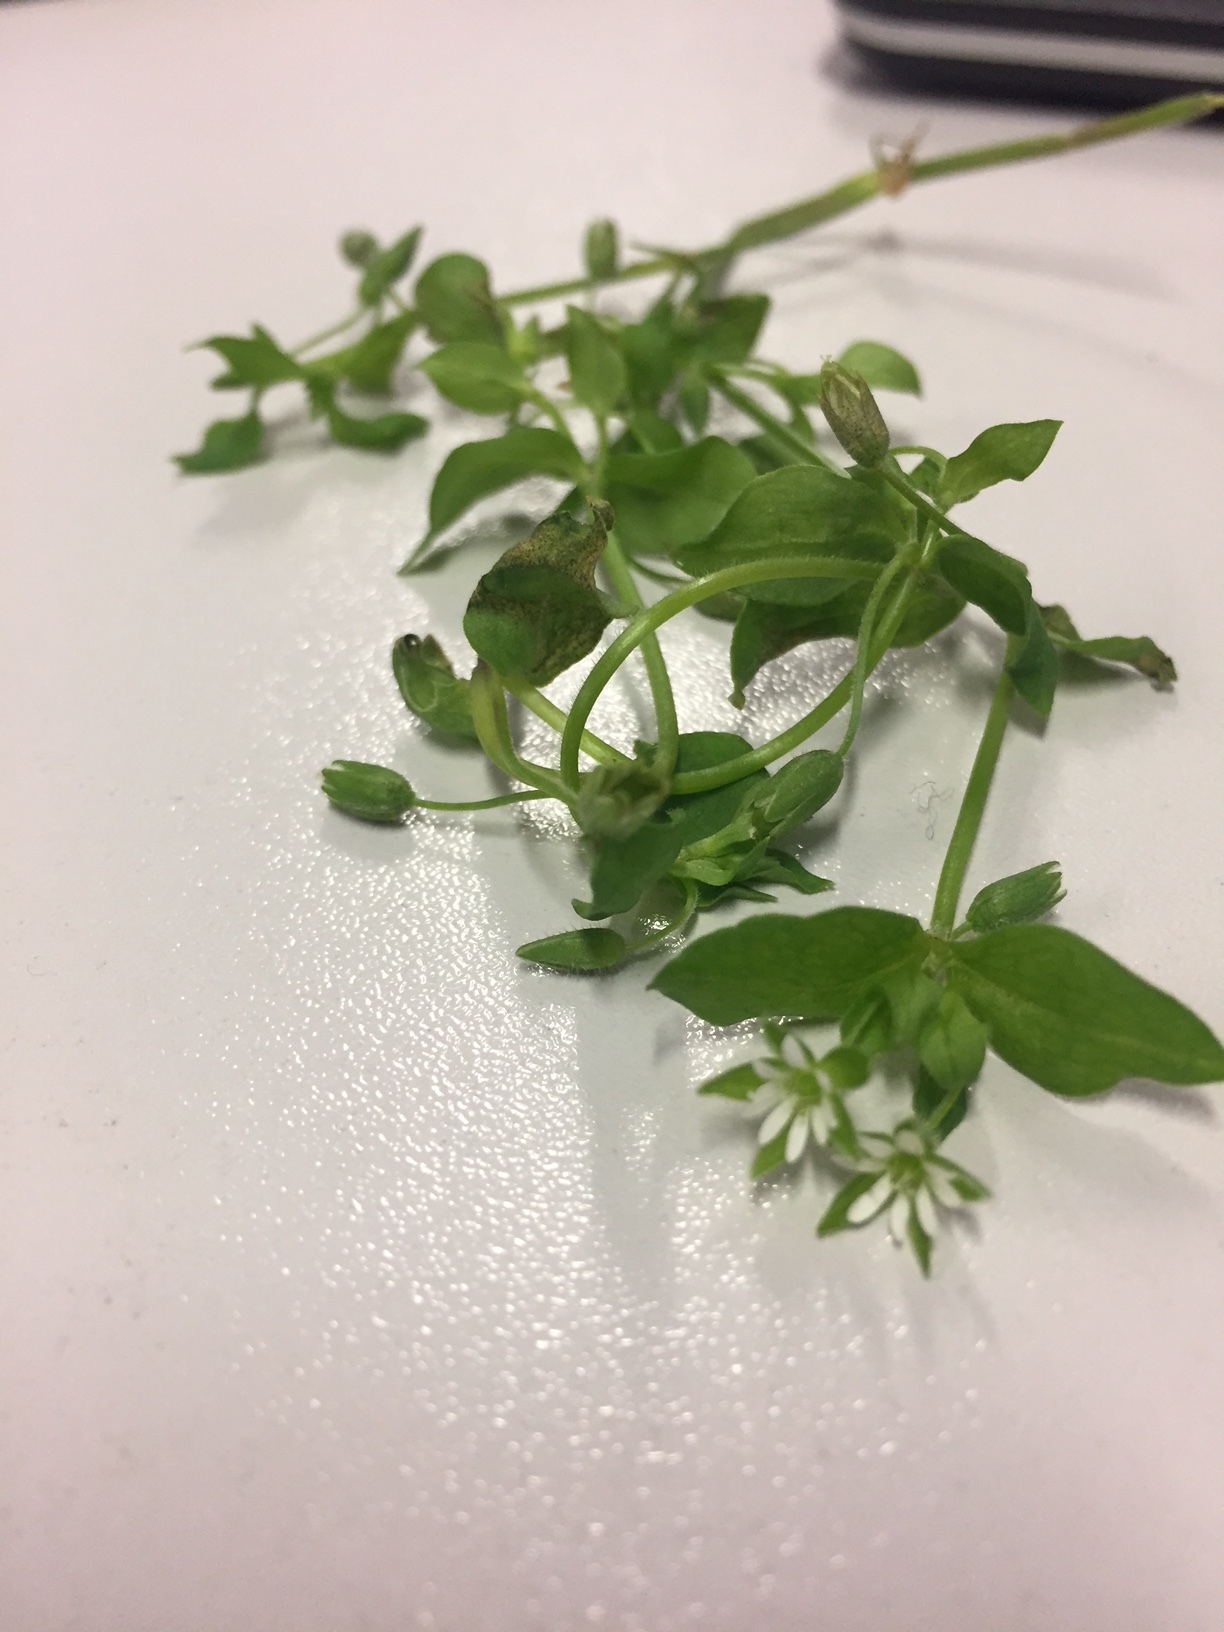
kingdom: Plantae
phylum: Tracheophyta
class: Magnoliopsida
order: Caryophyllales
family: Caryophyllaceae
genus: Stellaria
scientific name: Stellaria media
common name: Common chickweed
